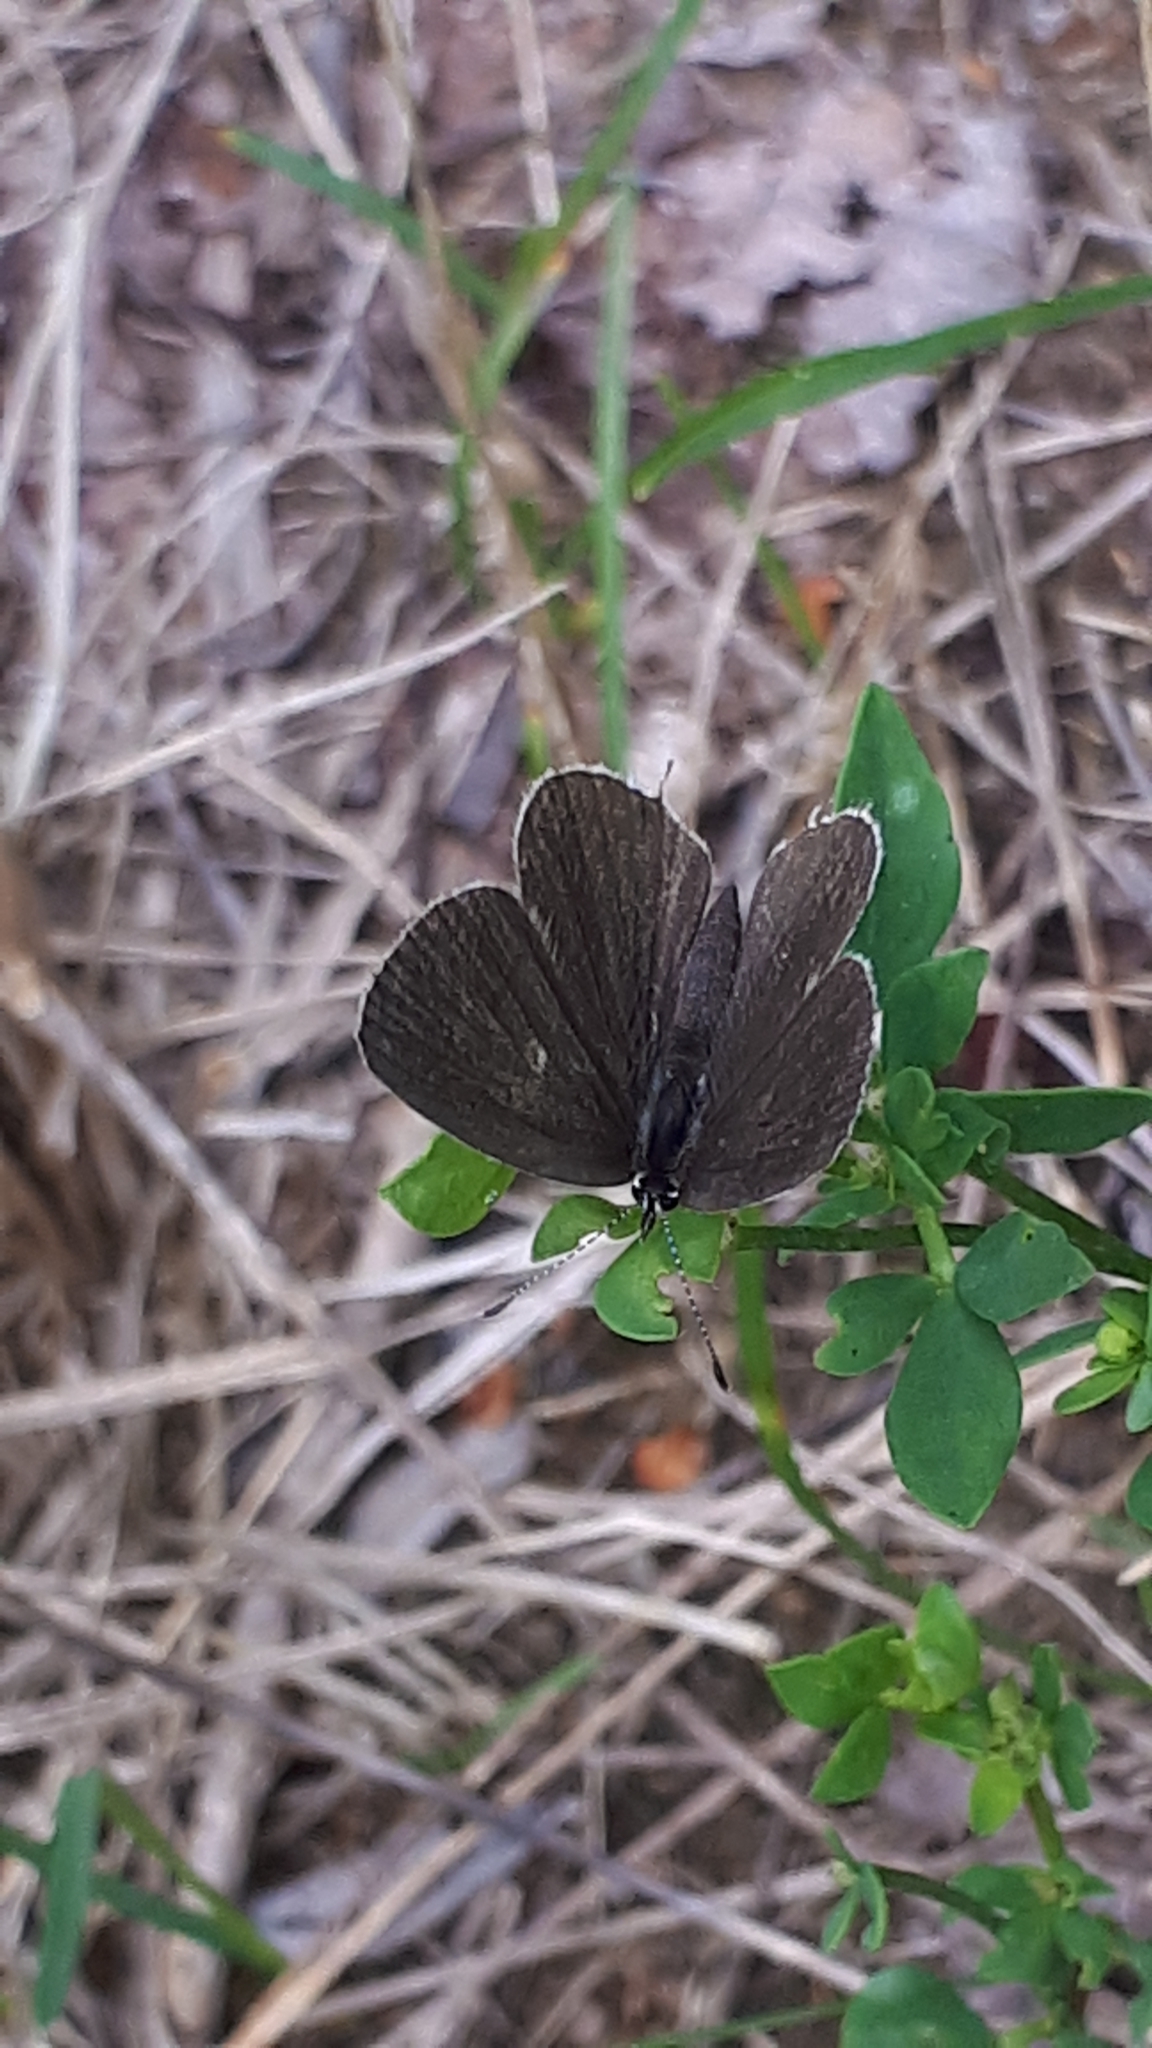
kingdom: Animalia
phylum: Arthropoda
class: Insecta
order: Lepidoptera
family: Lycaenidae
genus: Elkalyce
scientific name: Elkalyce argiades
